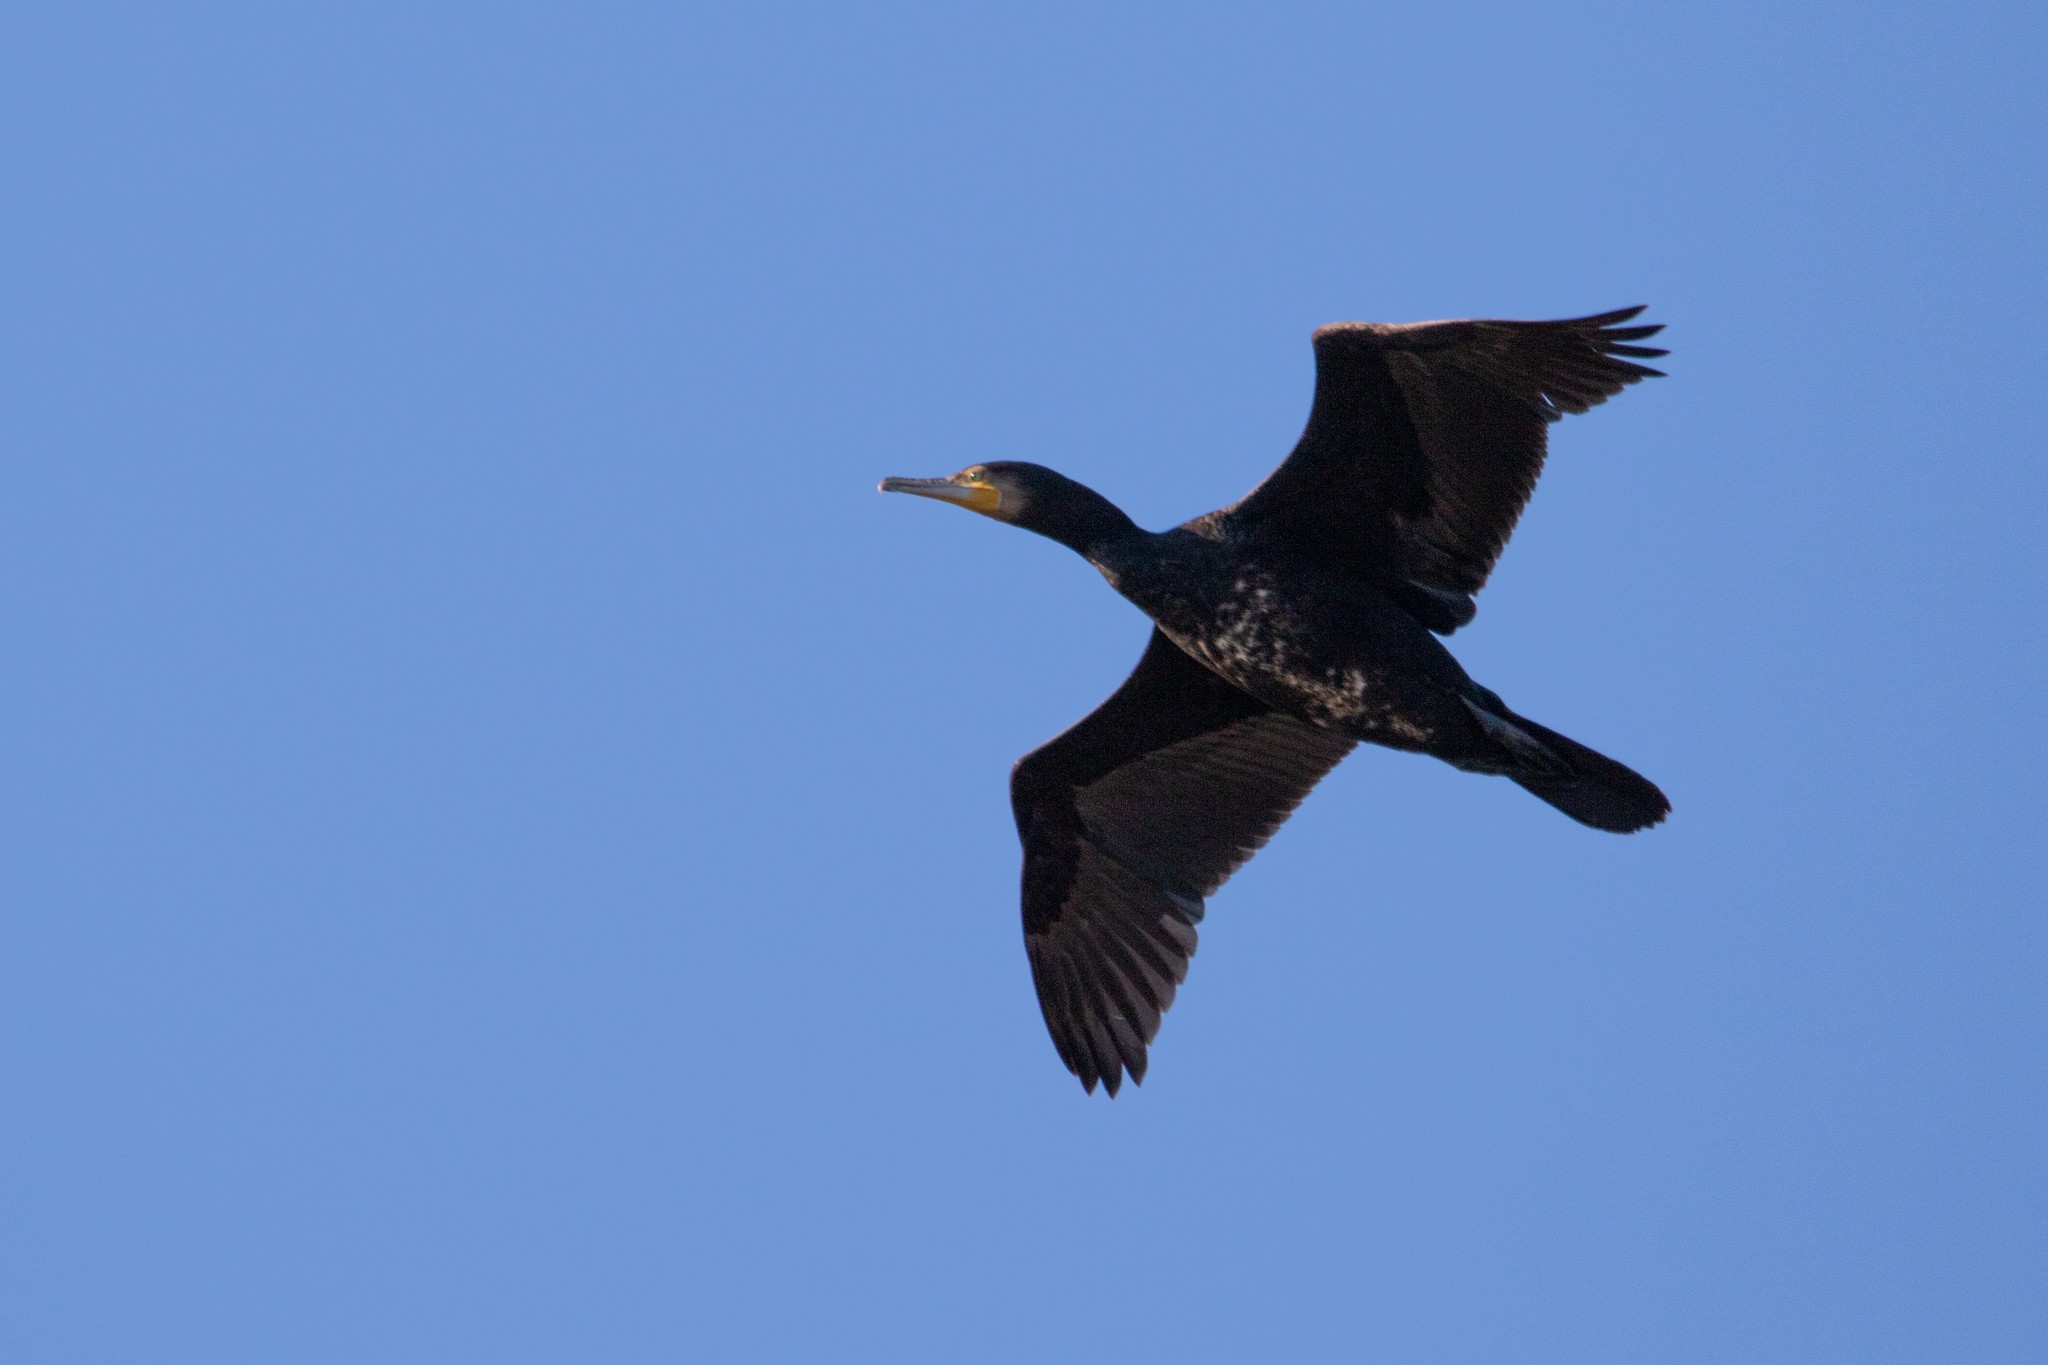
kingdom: Animalia
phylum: Chordata
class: Aves
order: Suliformes
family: Phalacrocoracidae
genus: Phalacrocorax
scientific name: Phalacrocorax carbo
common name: Great cormorant
